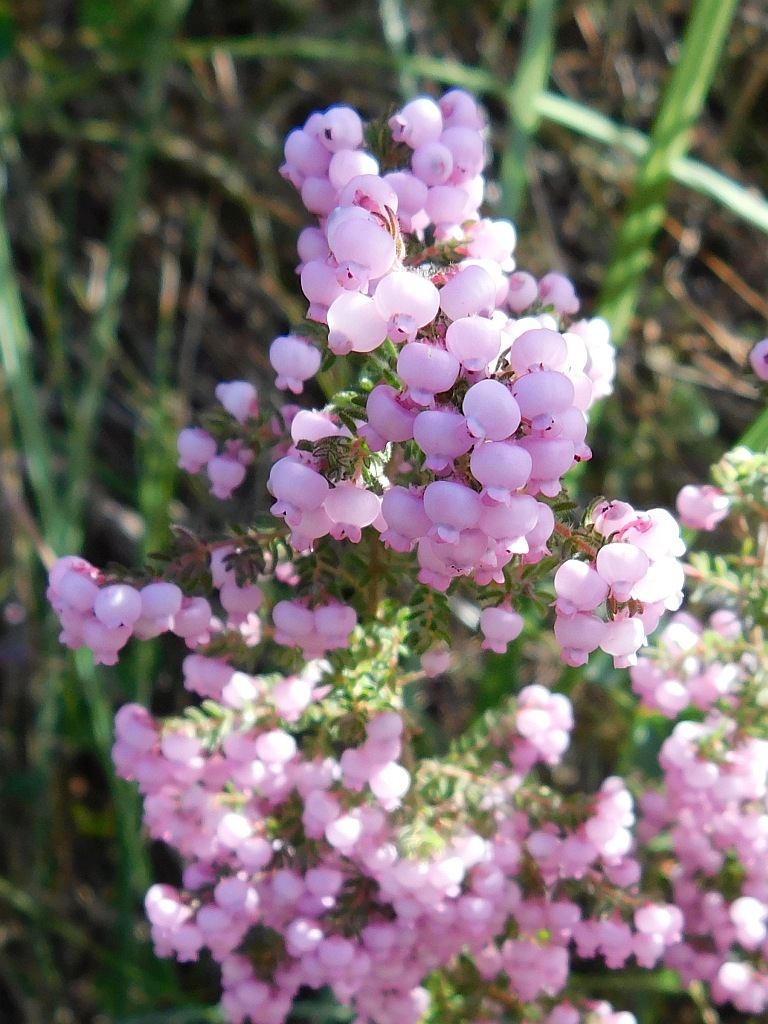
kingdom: Plantae
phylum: Tracheophyta
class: Magnoliopsida
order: Ericales
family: Ericaceae
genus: Erica
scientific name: Erica bergiana
